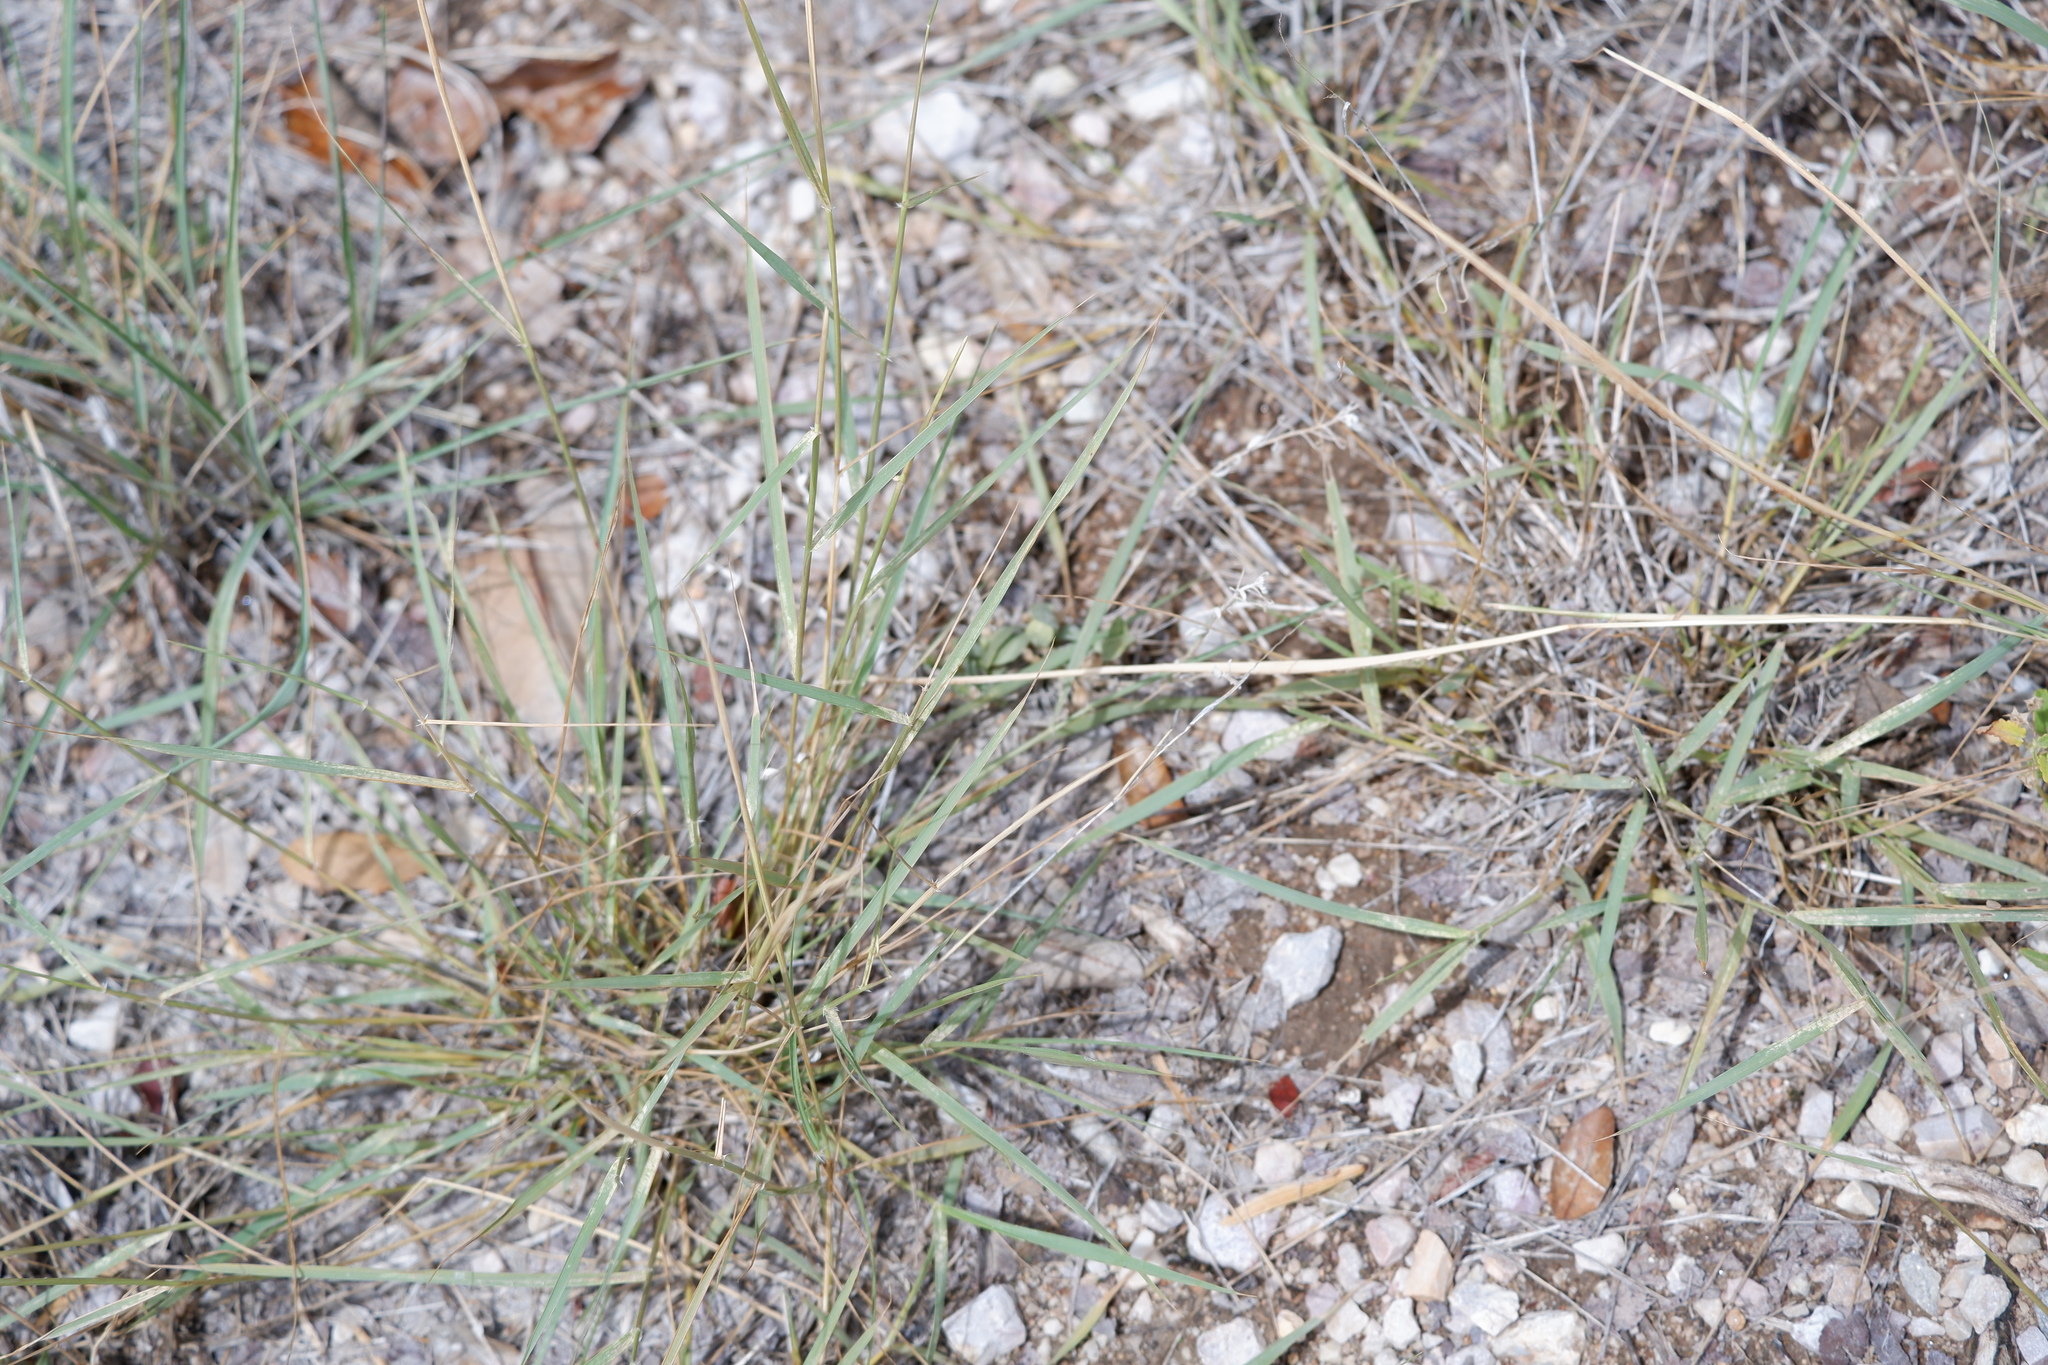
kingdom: Plantae
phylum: Tracheophyta
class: Liliopsida
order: Poales
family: Poaceae
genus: Sporobolus
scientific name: Sporobolus cryptandrus
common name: Sand dropseed
